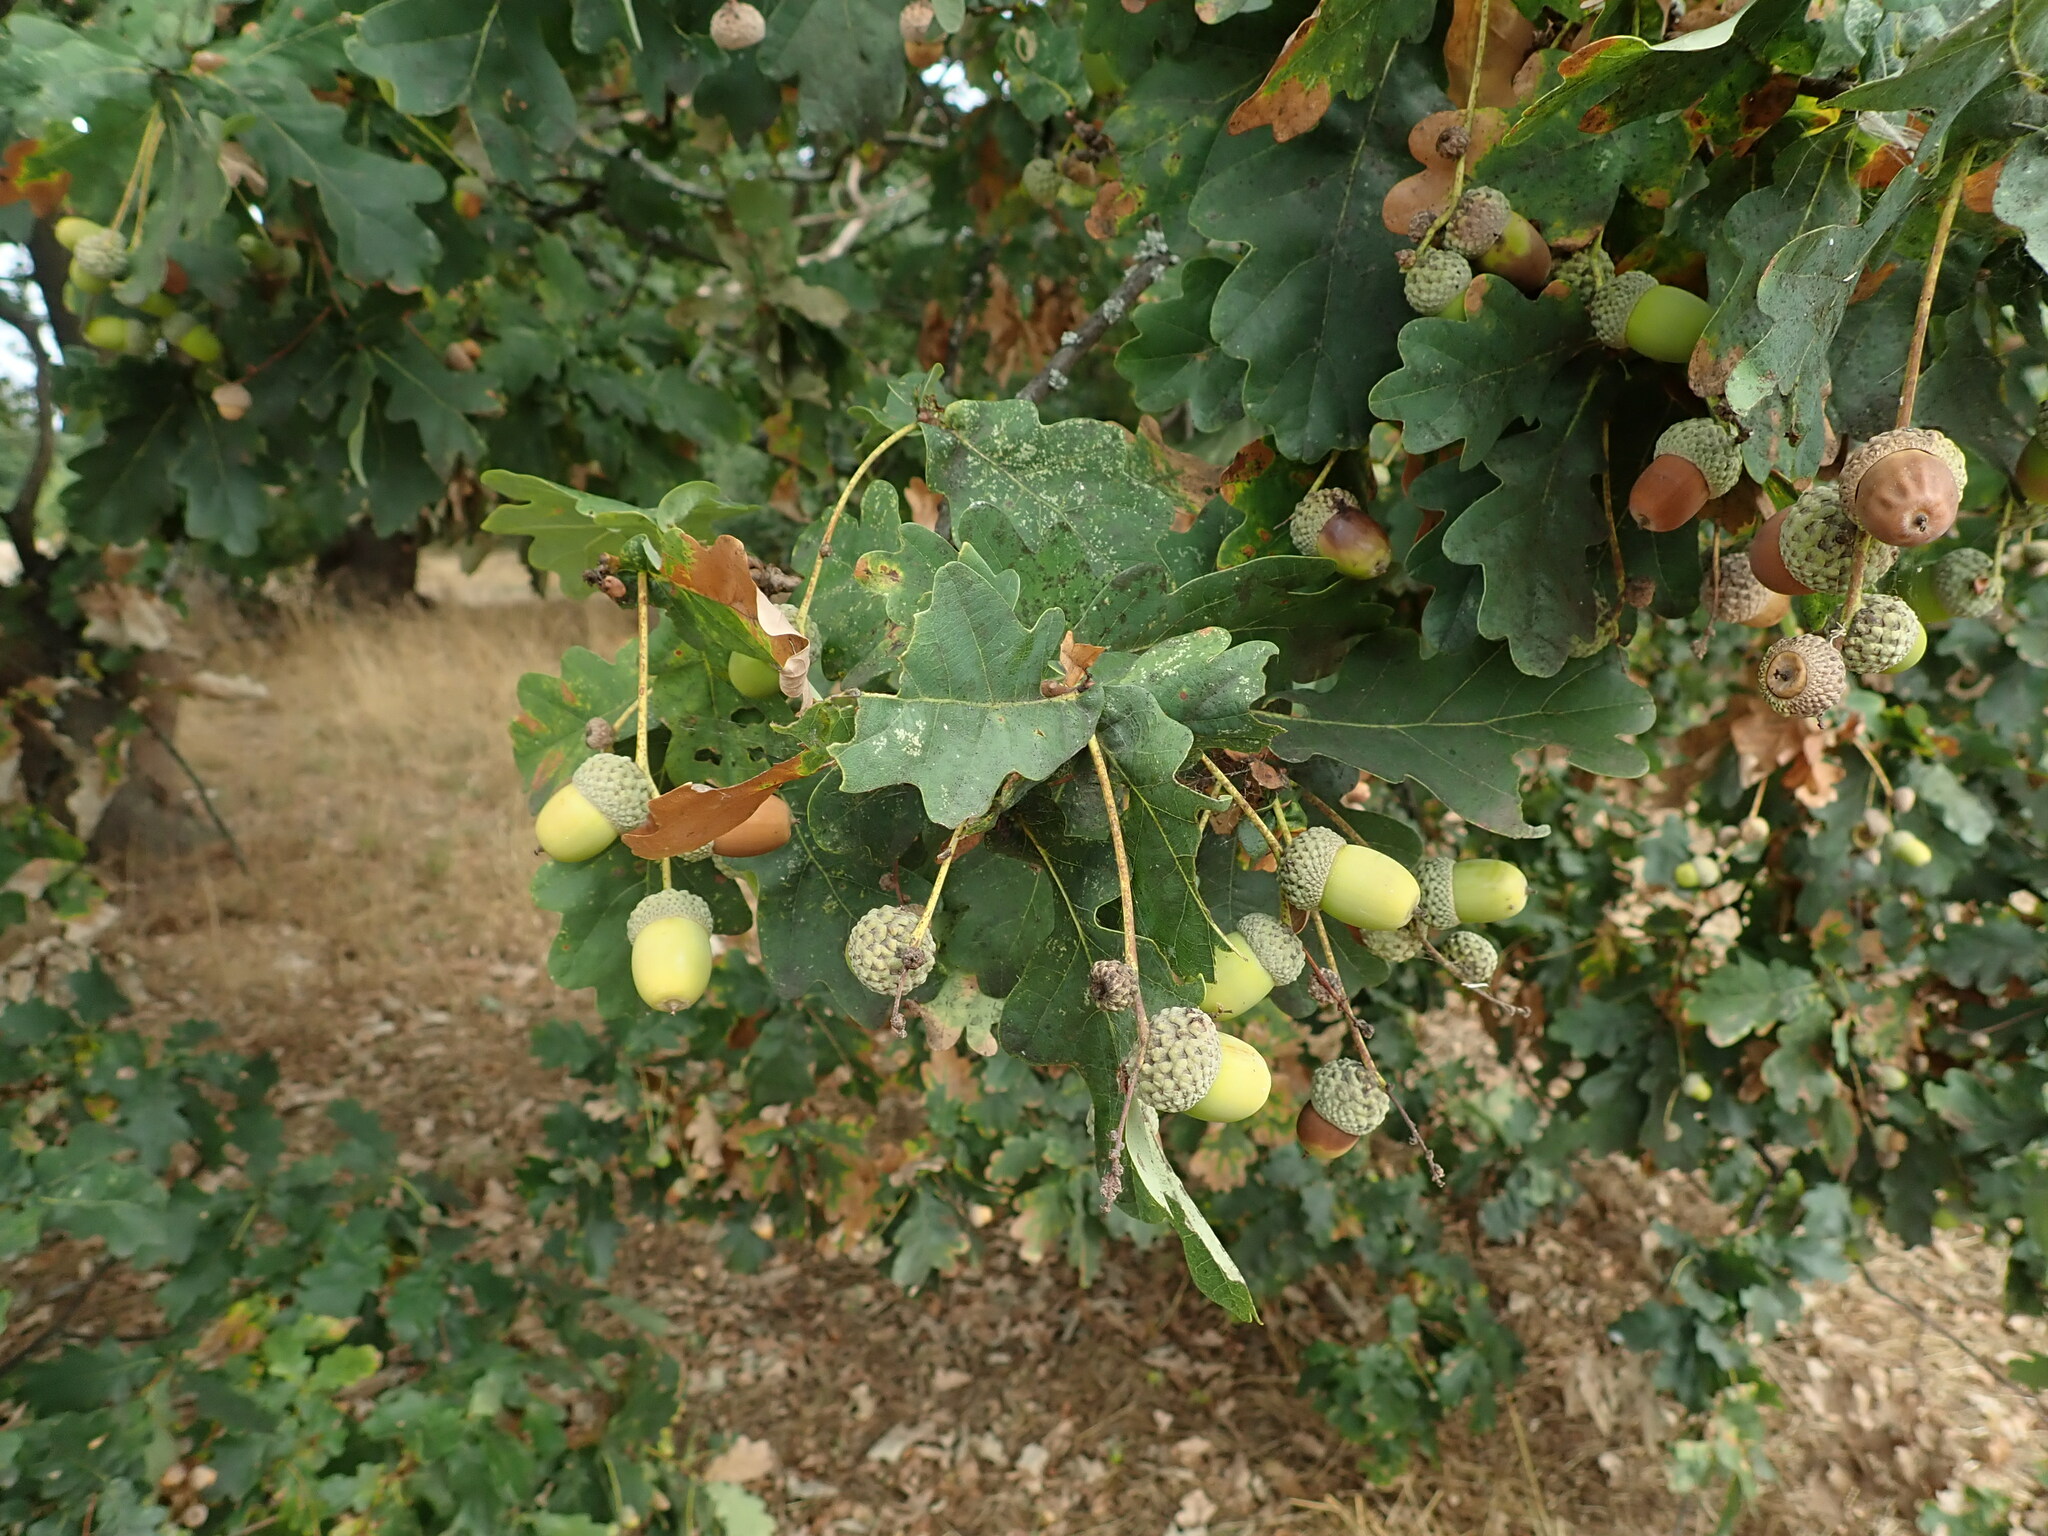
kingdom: Plantae
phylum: Tracheophyta
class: Magnoliopsida
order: Fagales
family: Fagaceae
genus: Quercus
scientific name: Quercus robur
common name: Pedunculate oak
